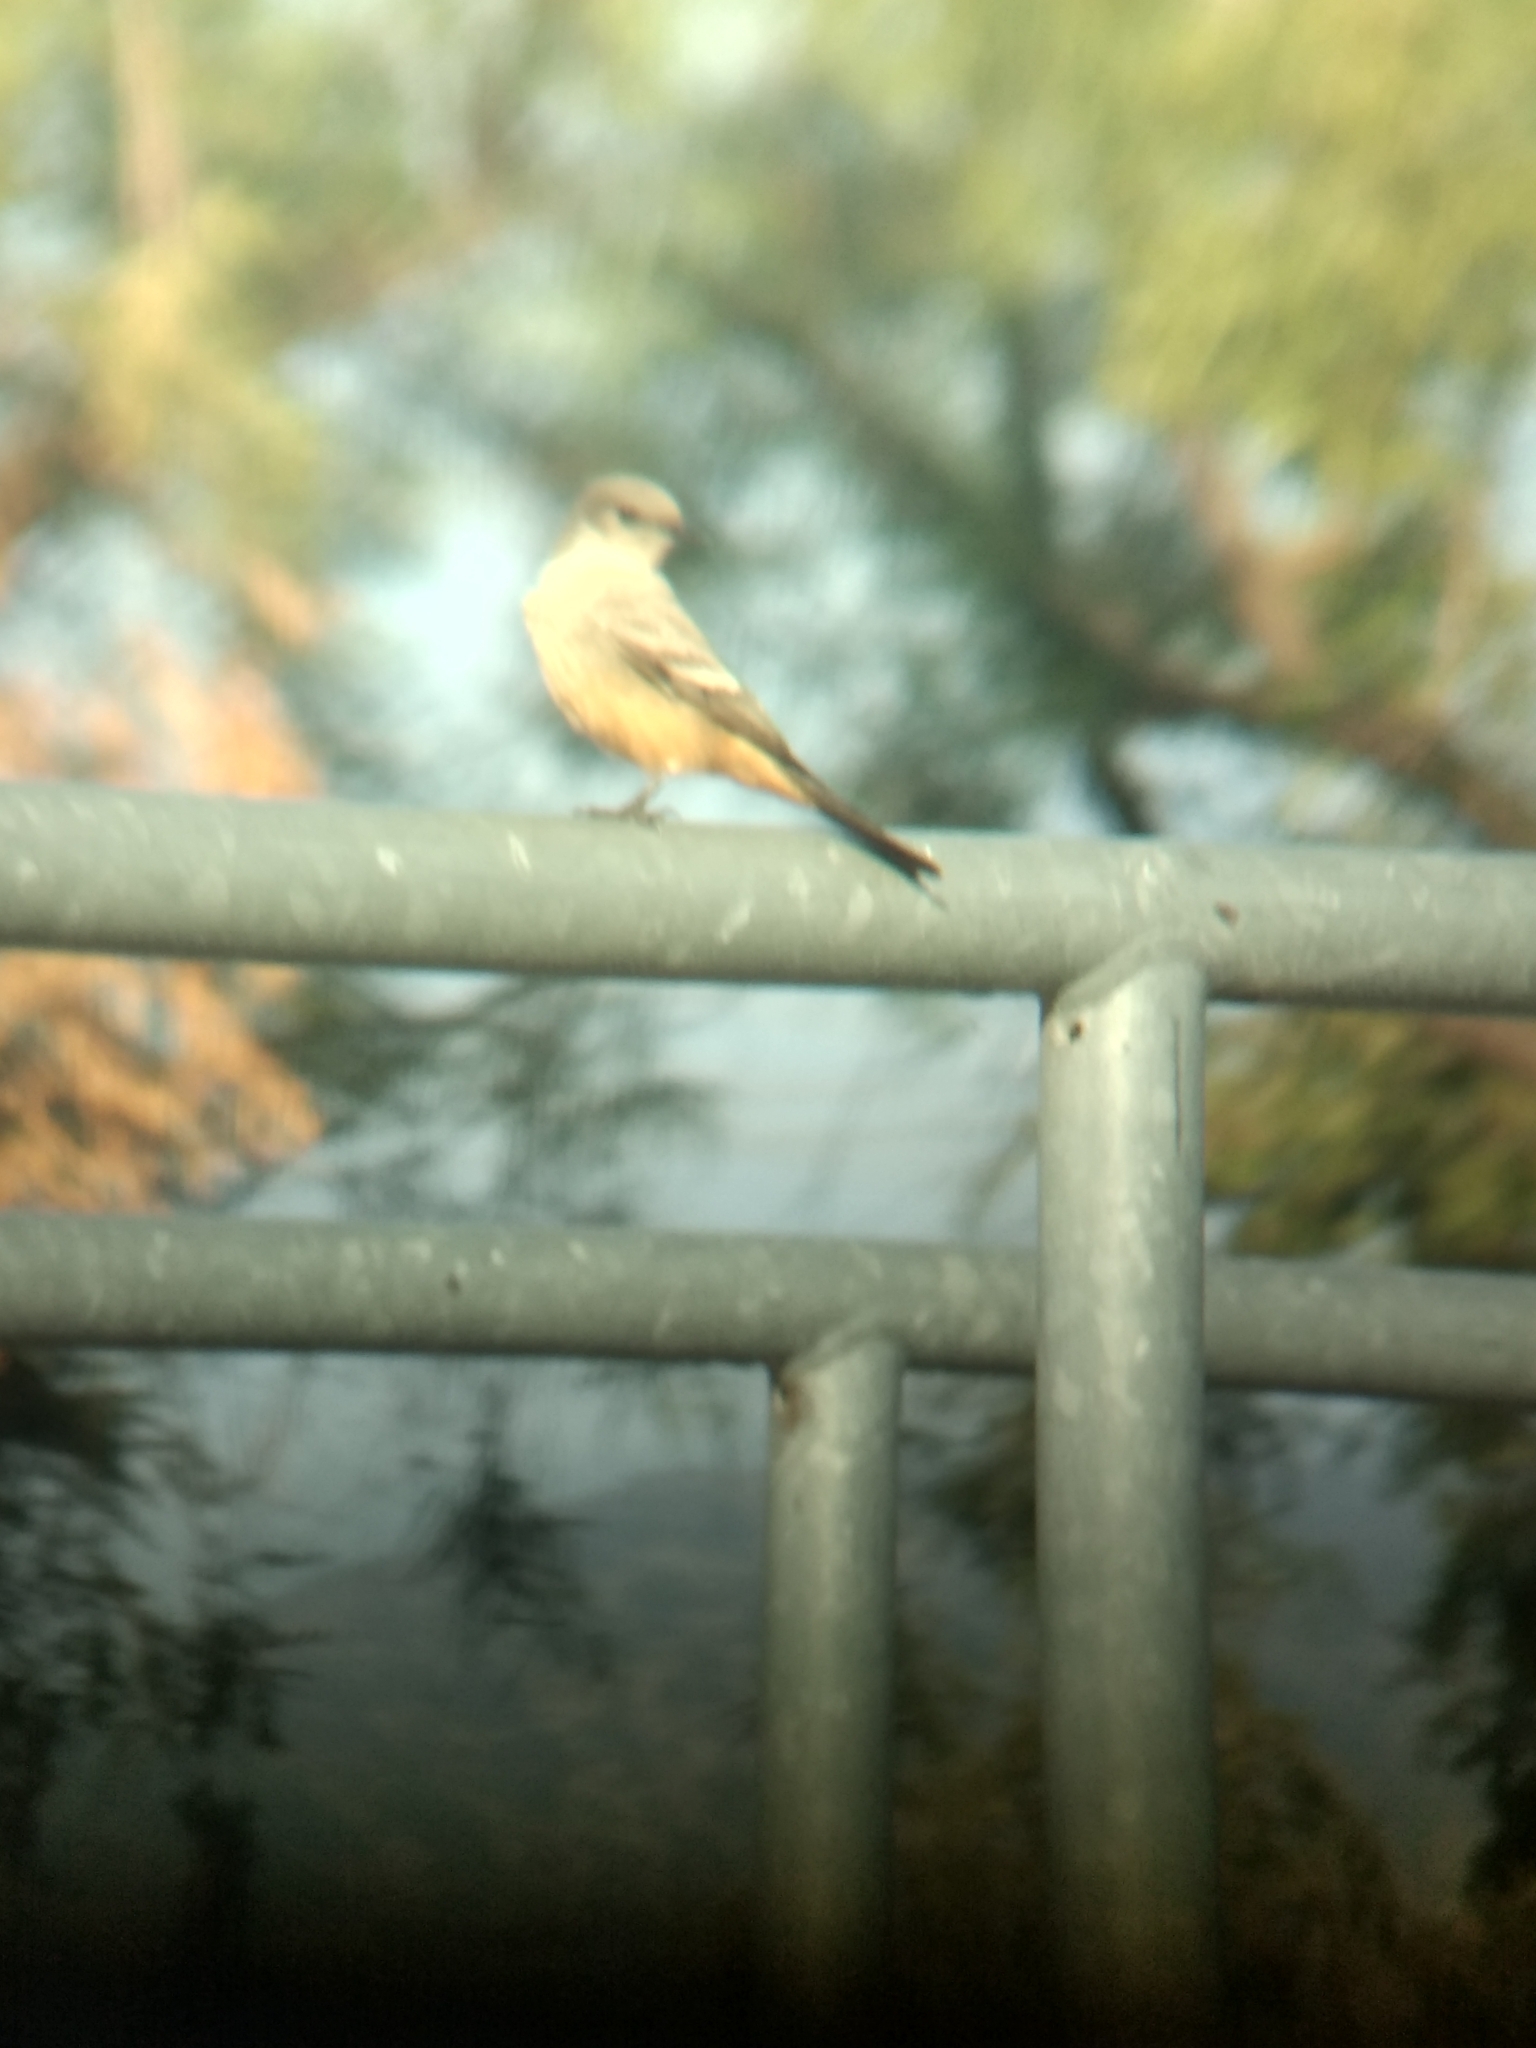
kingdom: Animalia
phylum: Chordata
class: Aves
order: Passeriformes
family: Tyrannidae
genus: Sayornis
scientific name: Sayornis saya
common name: Say's phoebe
